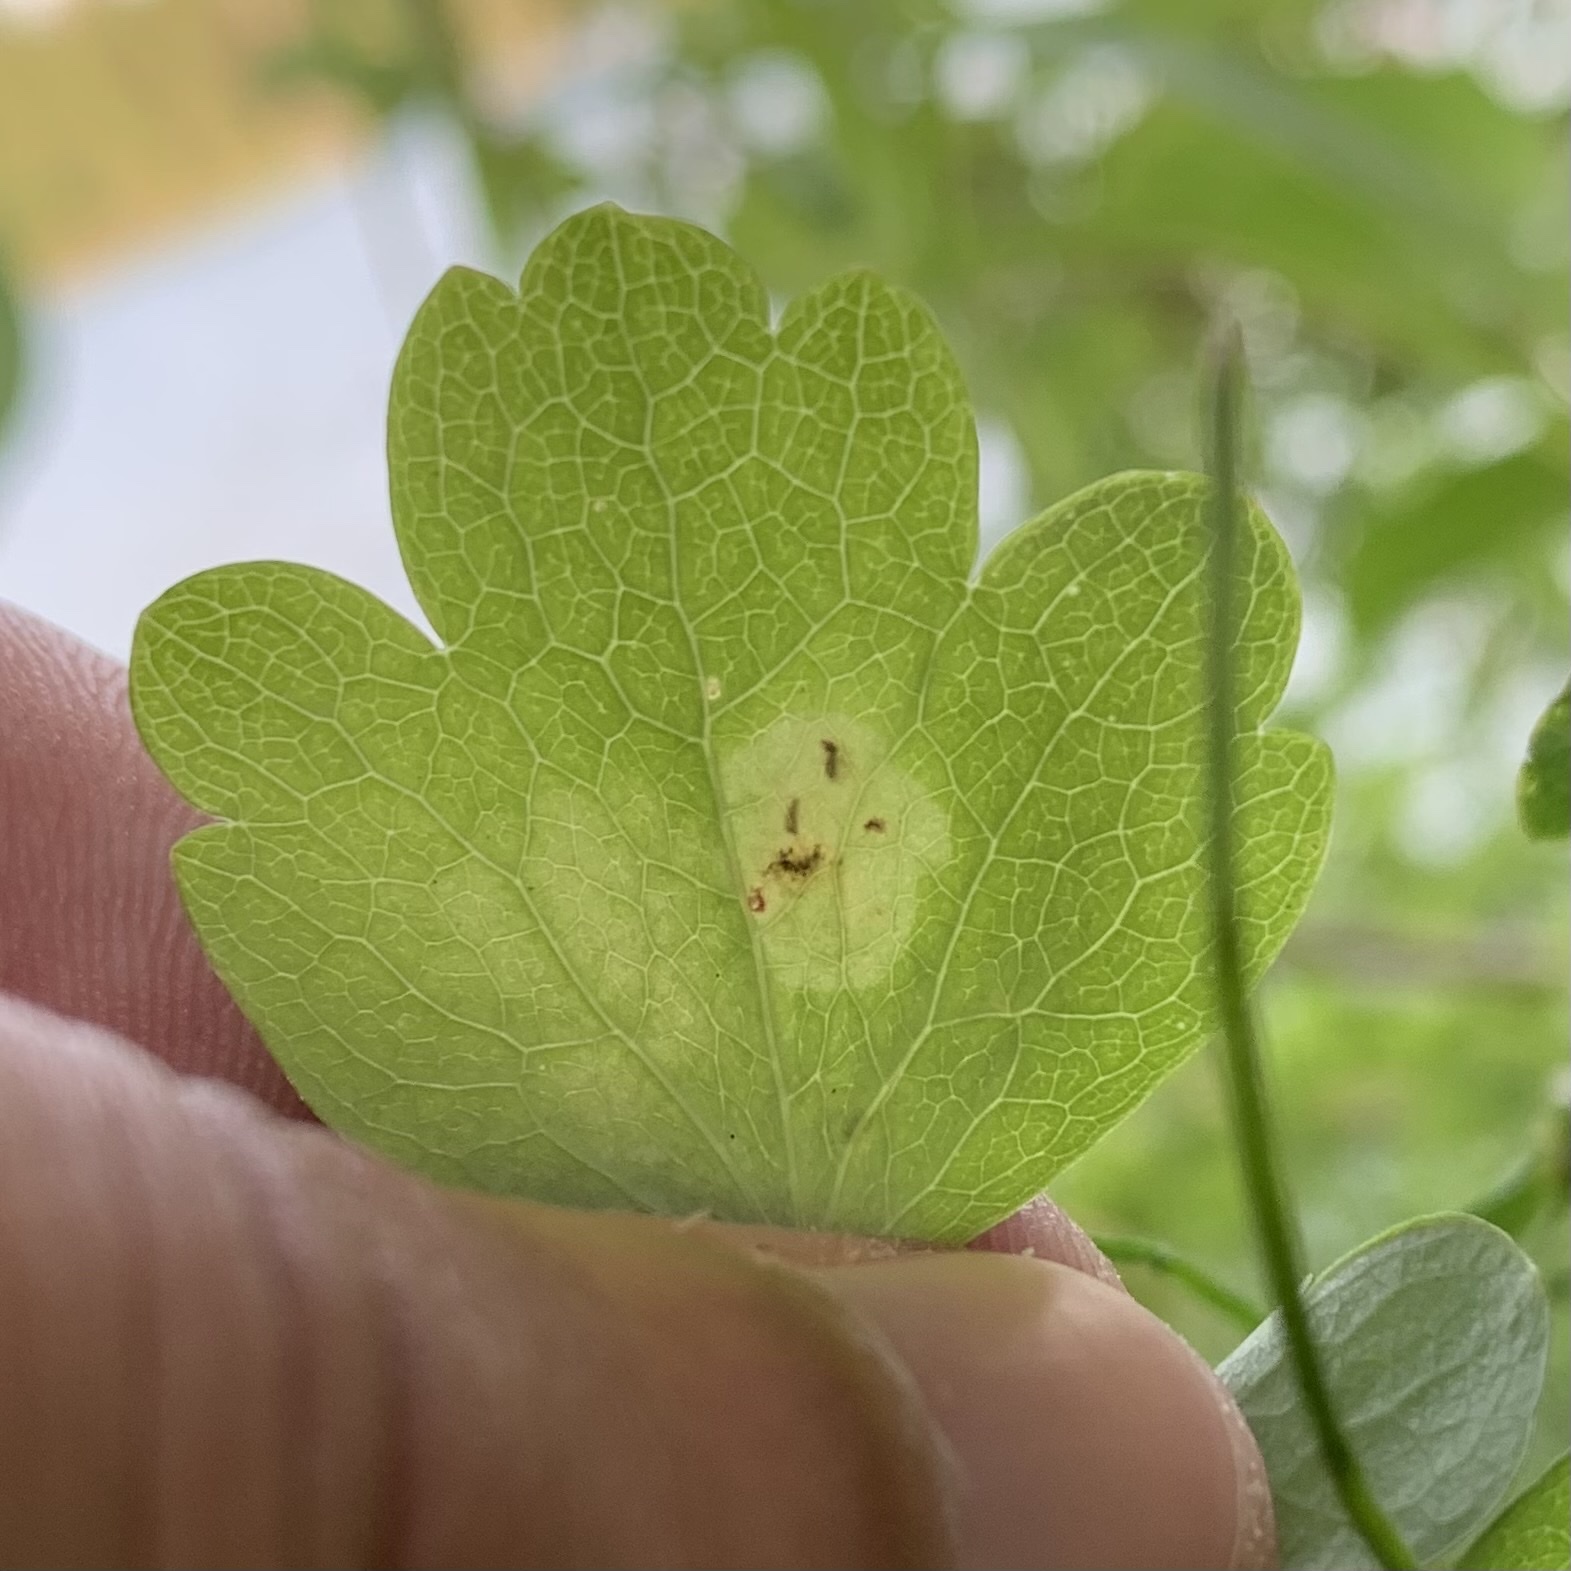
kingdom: Animalia
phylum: Arthropoda
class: Insecta
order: Diptera
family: Agromyzidae
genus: Phytomyza
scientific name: Phytomyza plumiseta
